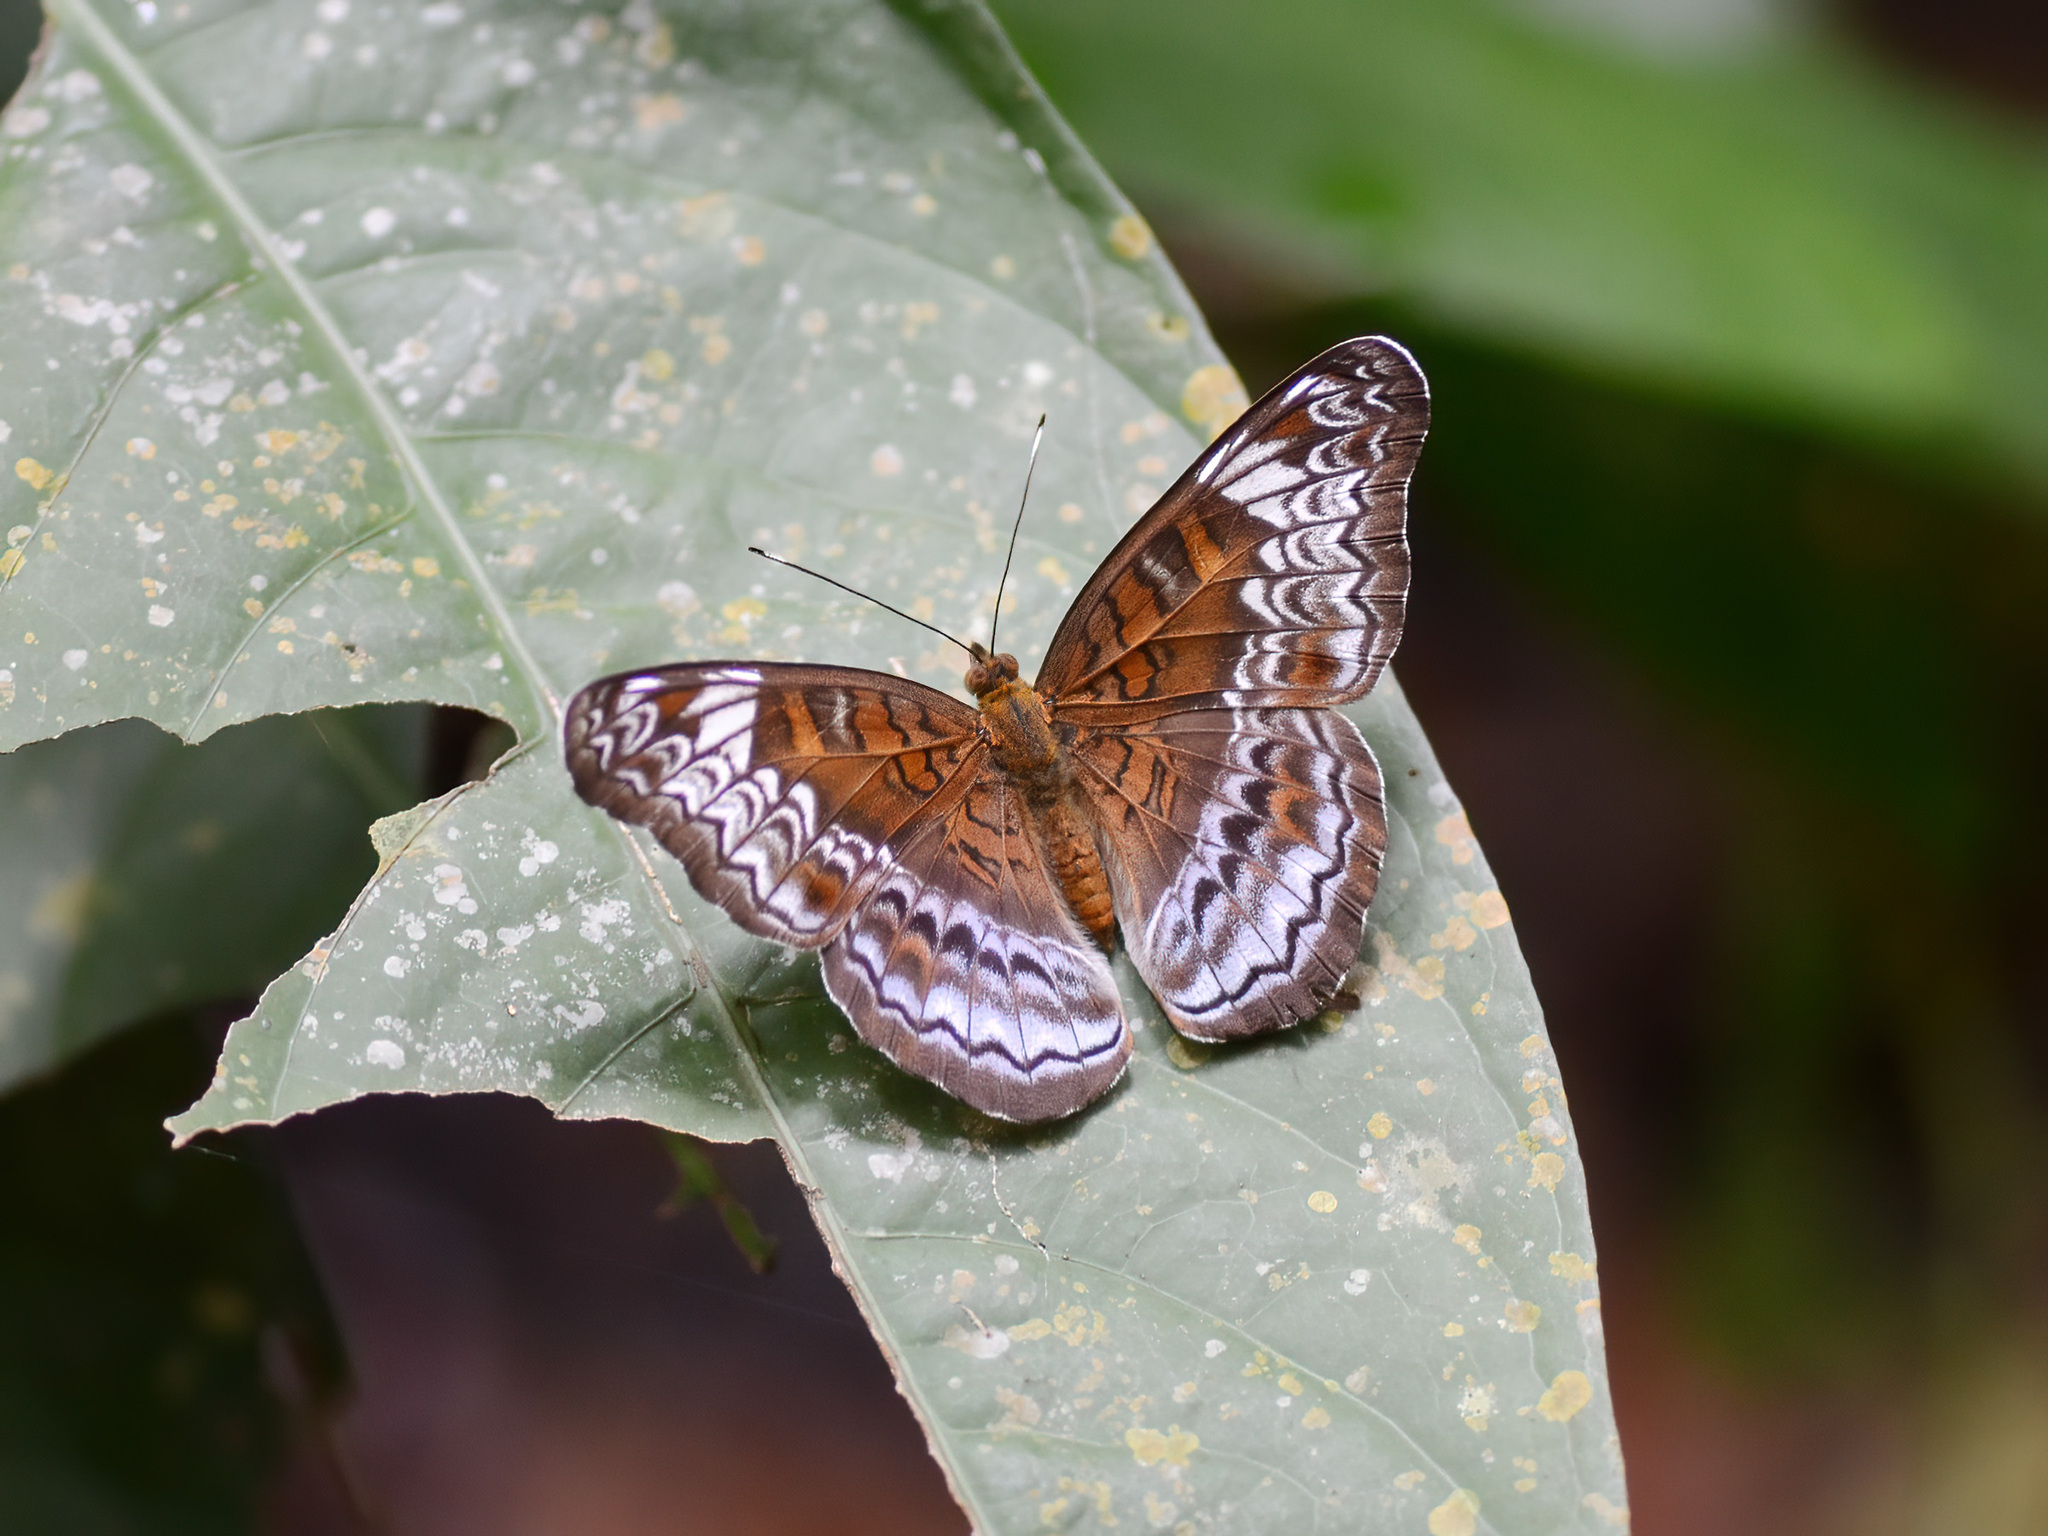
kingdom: Animalia
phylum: Arthropoda
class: Insecta
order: Lepidoptera
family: Nymphalidae
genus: Lebadea
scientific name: Lebadea martha
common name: Knight
